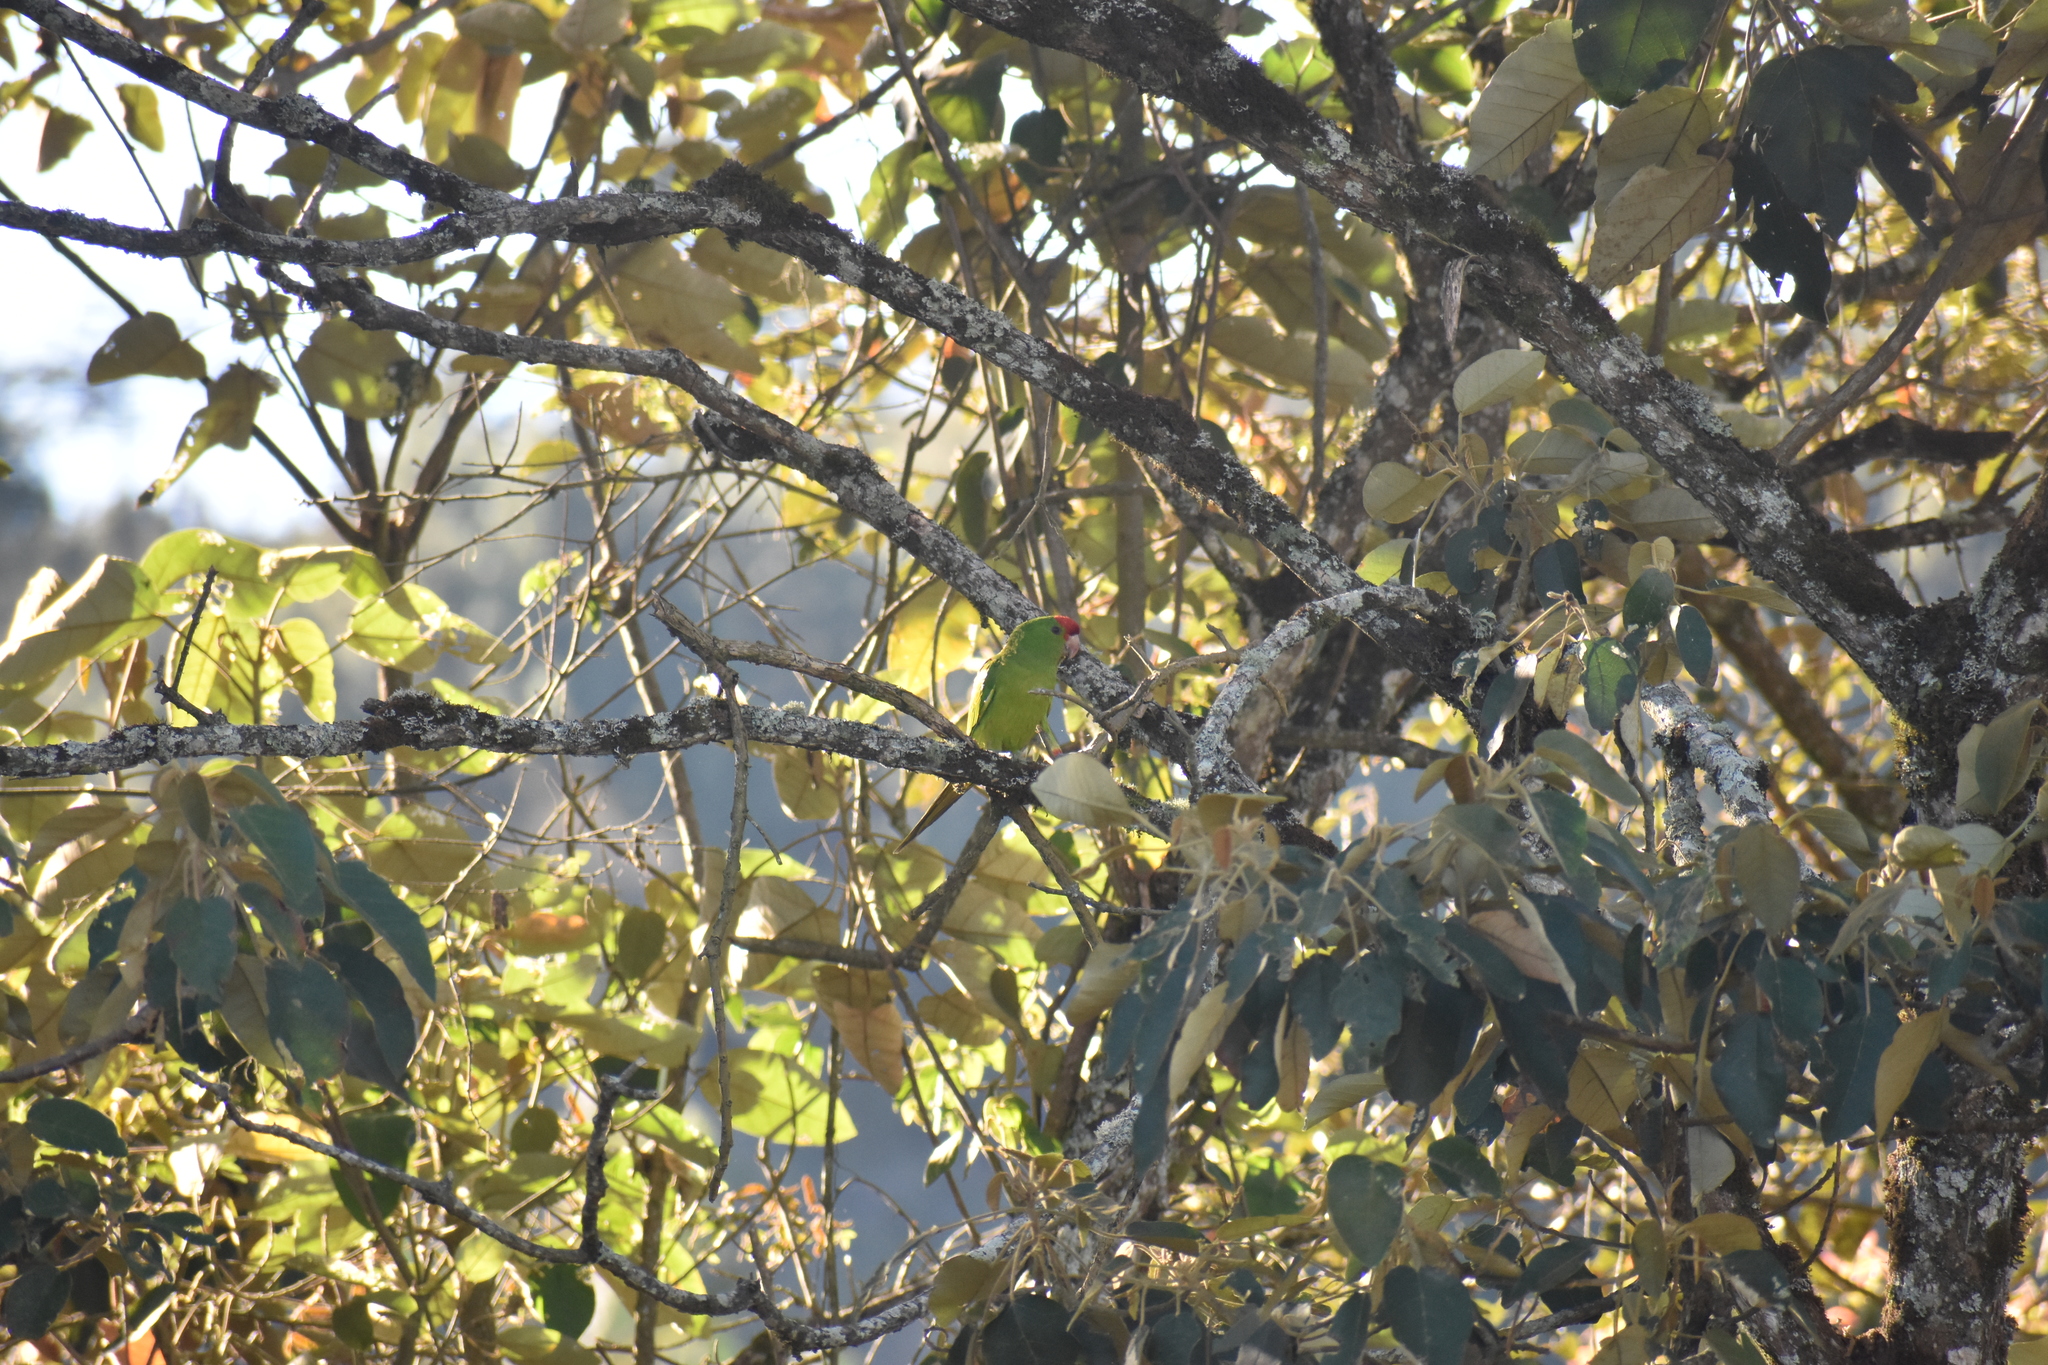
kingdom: Animalia
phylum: Chordata
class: Aves
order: Psittaciformes
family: Psittacidae
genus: Aratinga
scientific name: Aratinga wagleri
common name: Scarlet-fronted parakeet
